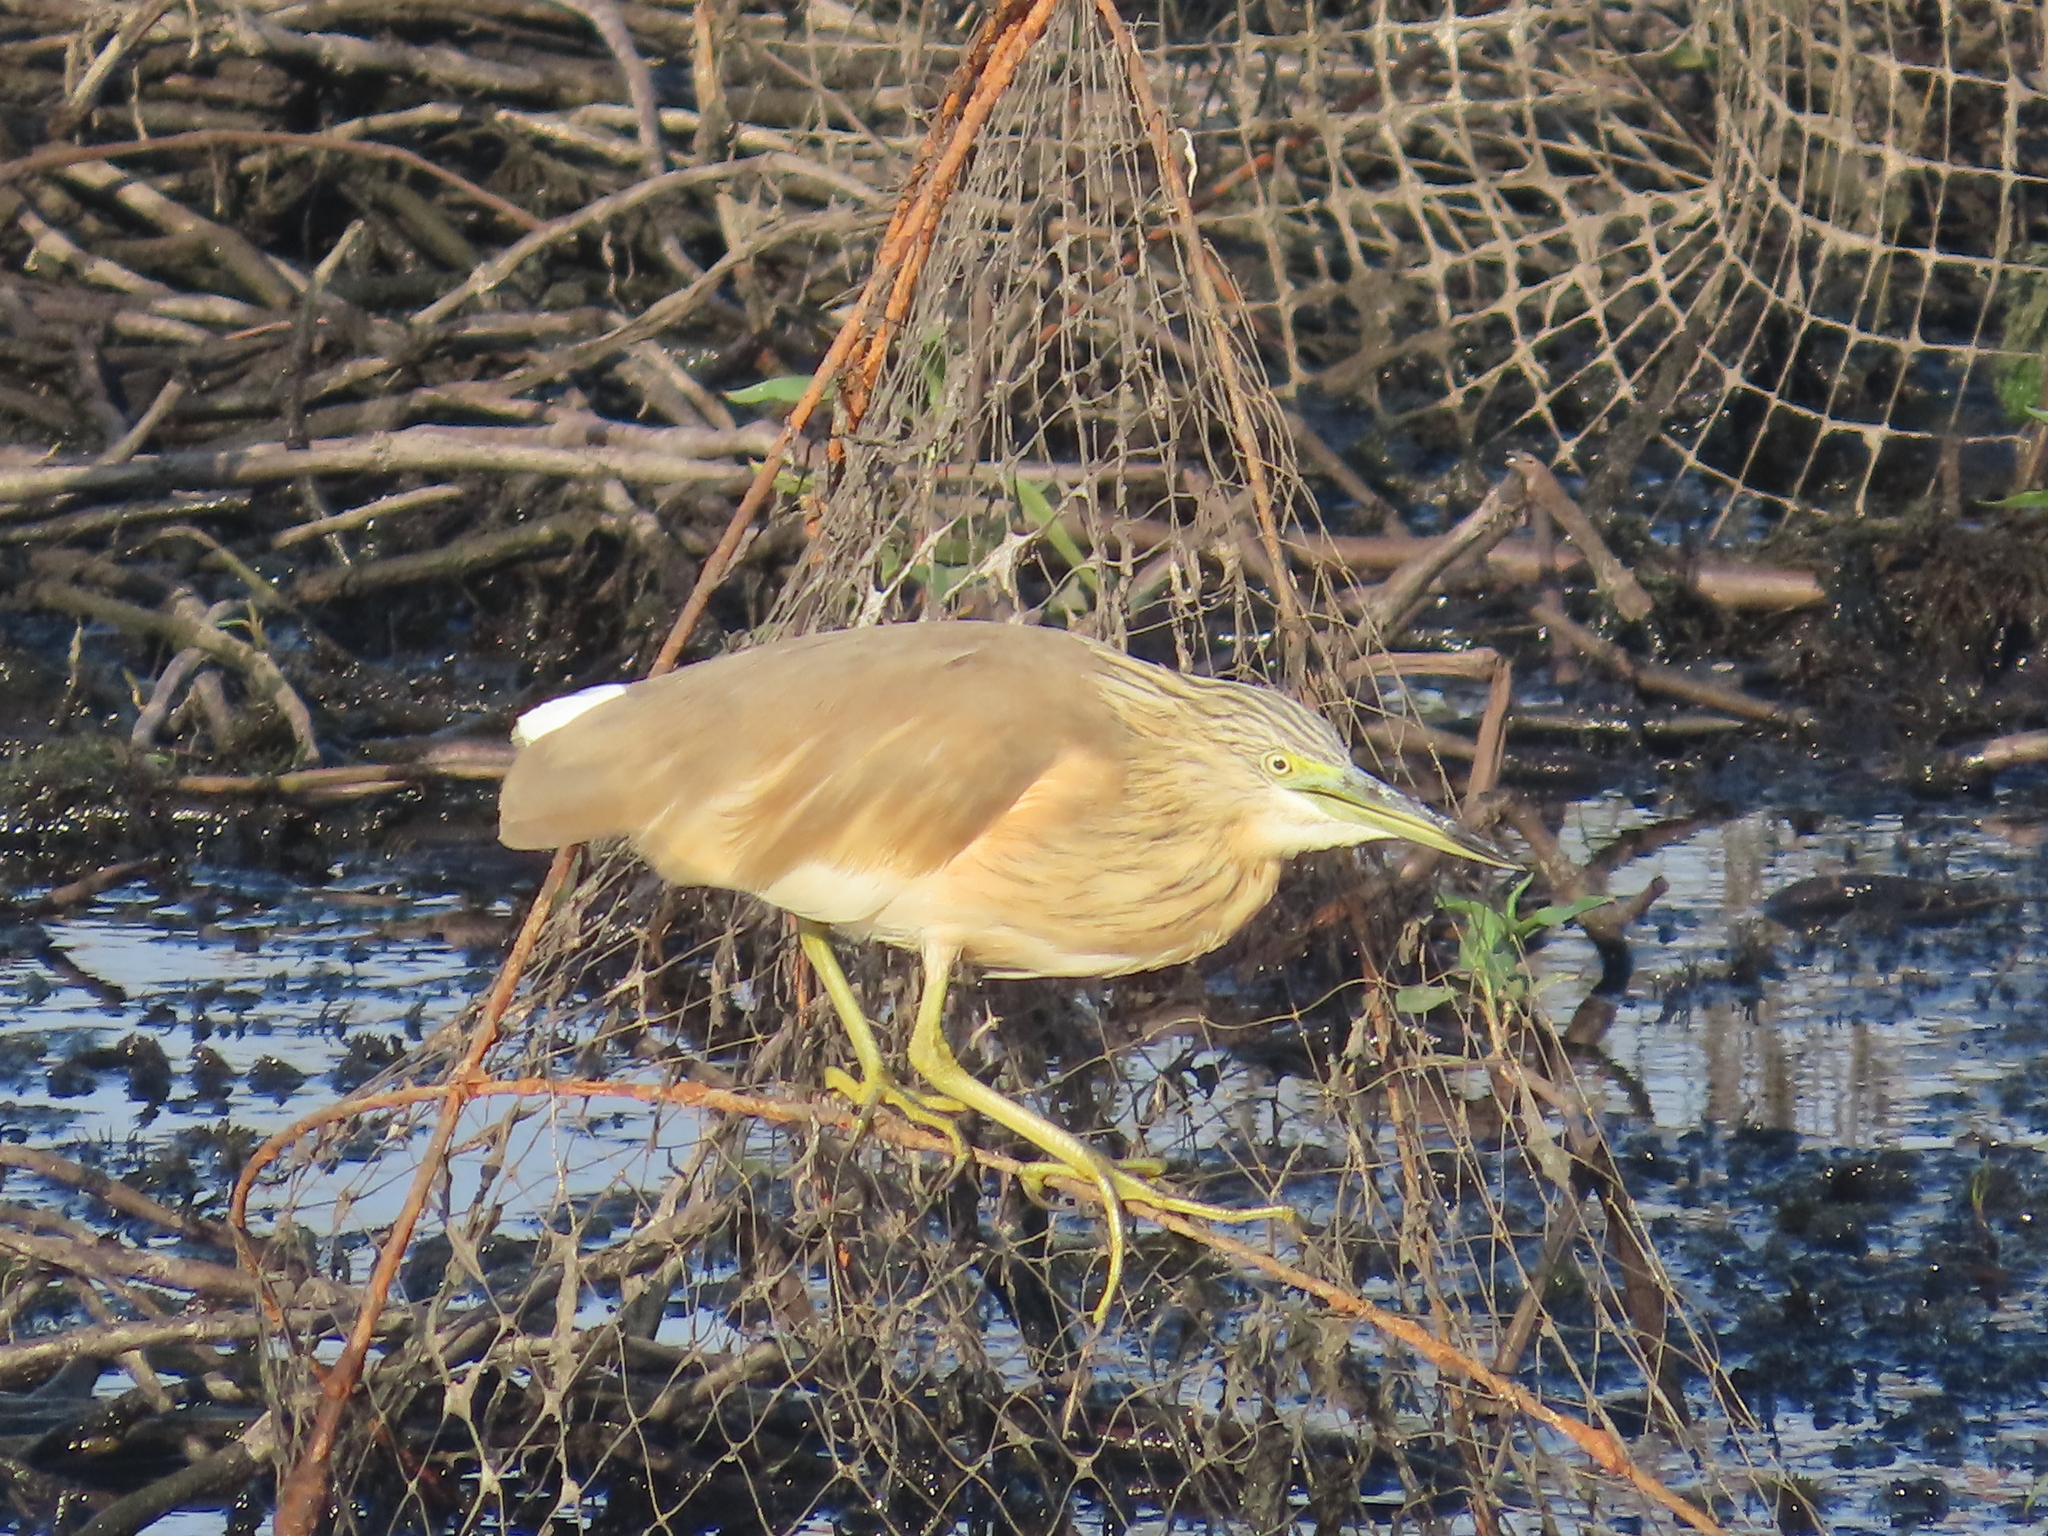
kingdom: Animalia
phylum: Chordata
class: Aves
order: Pelecaniformes
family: Ardeidae
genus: Ardeola
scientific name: Ardeola ralloides
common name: Squacco heron
